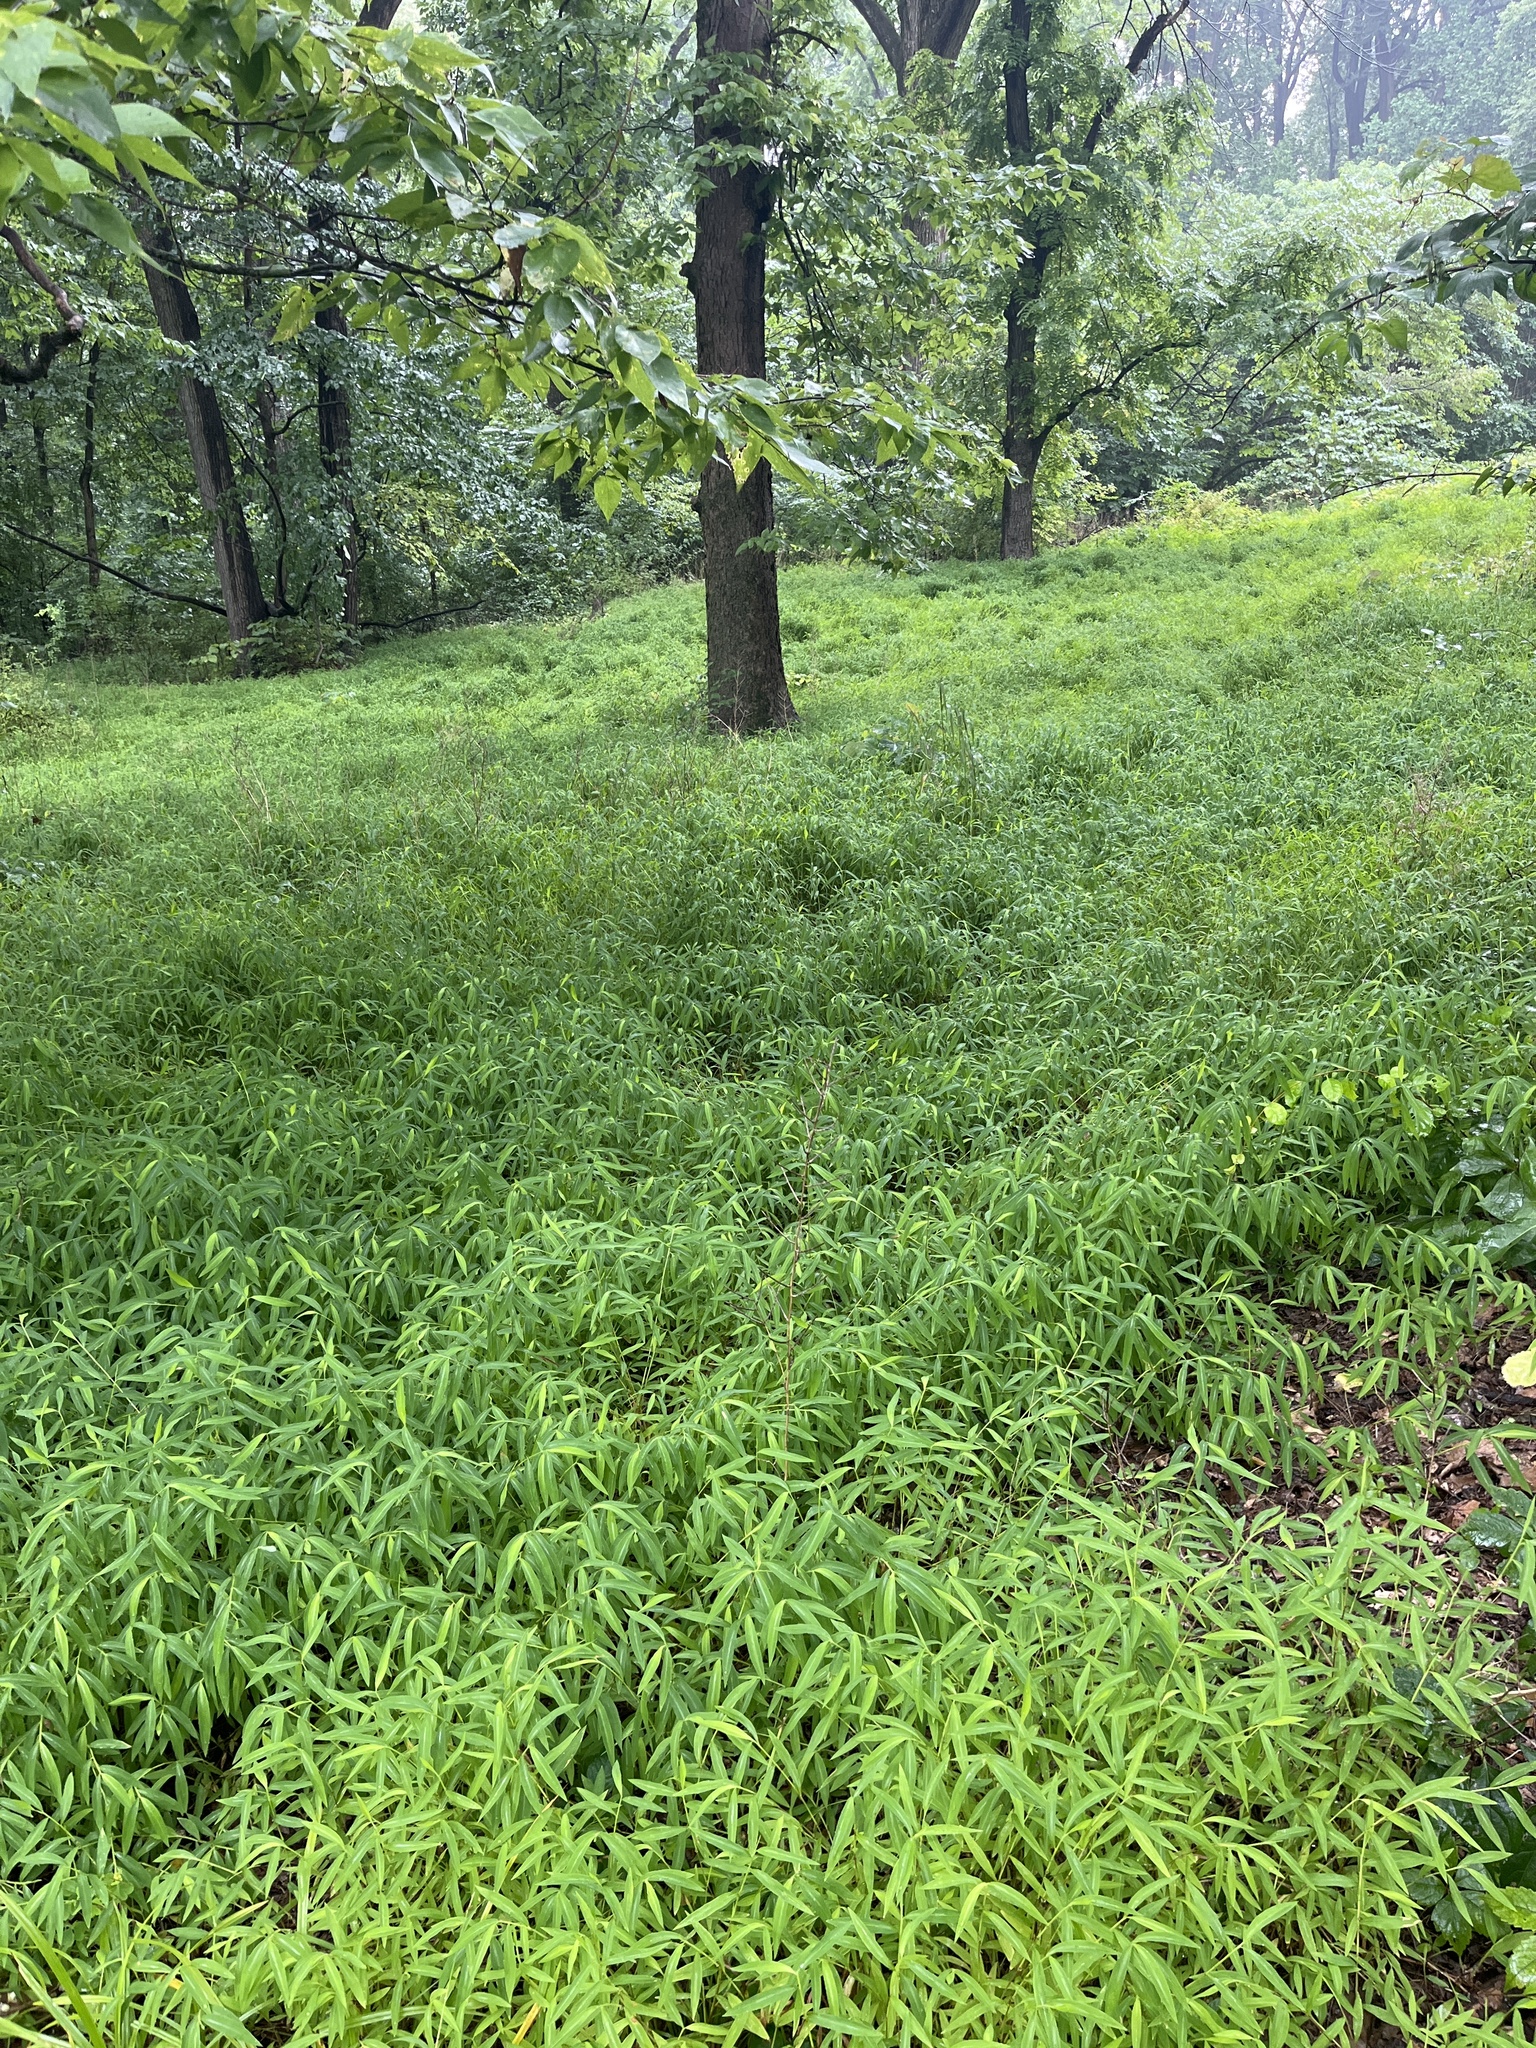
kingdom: Plantae
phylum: Tracheophyta
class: Liliopsida
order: Poales
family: Poaceae
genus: Microstegium
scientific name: Microstegium vimineum
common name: Japanese stiltgrass
